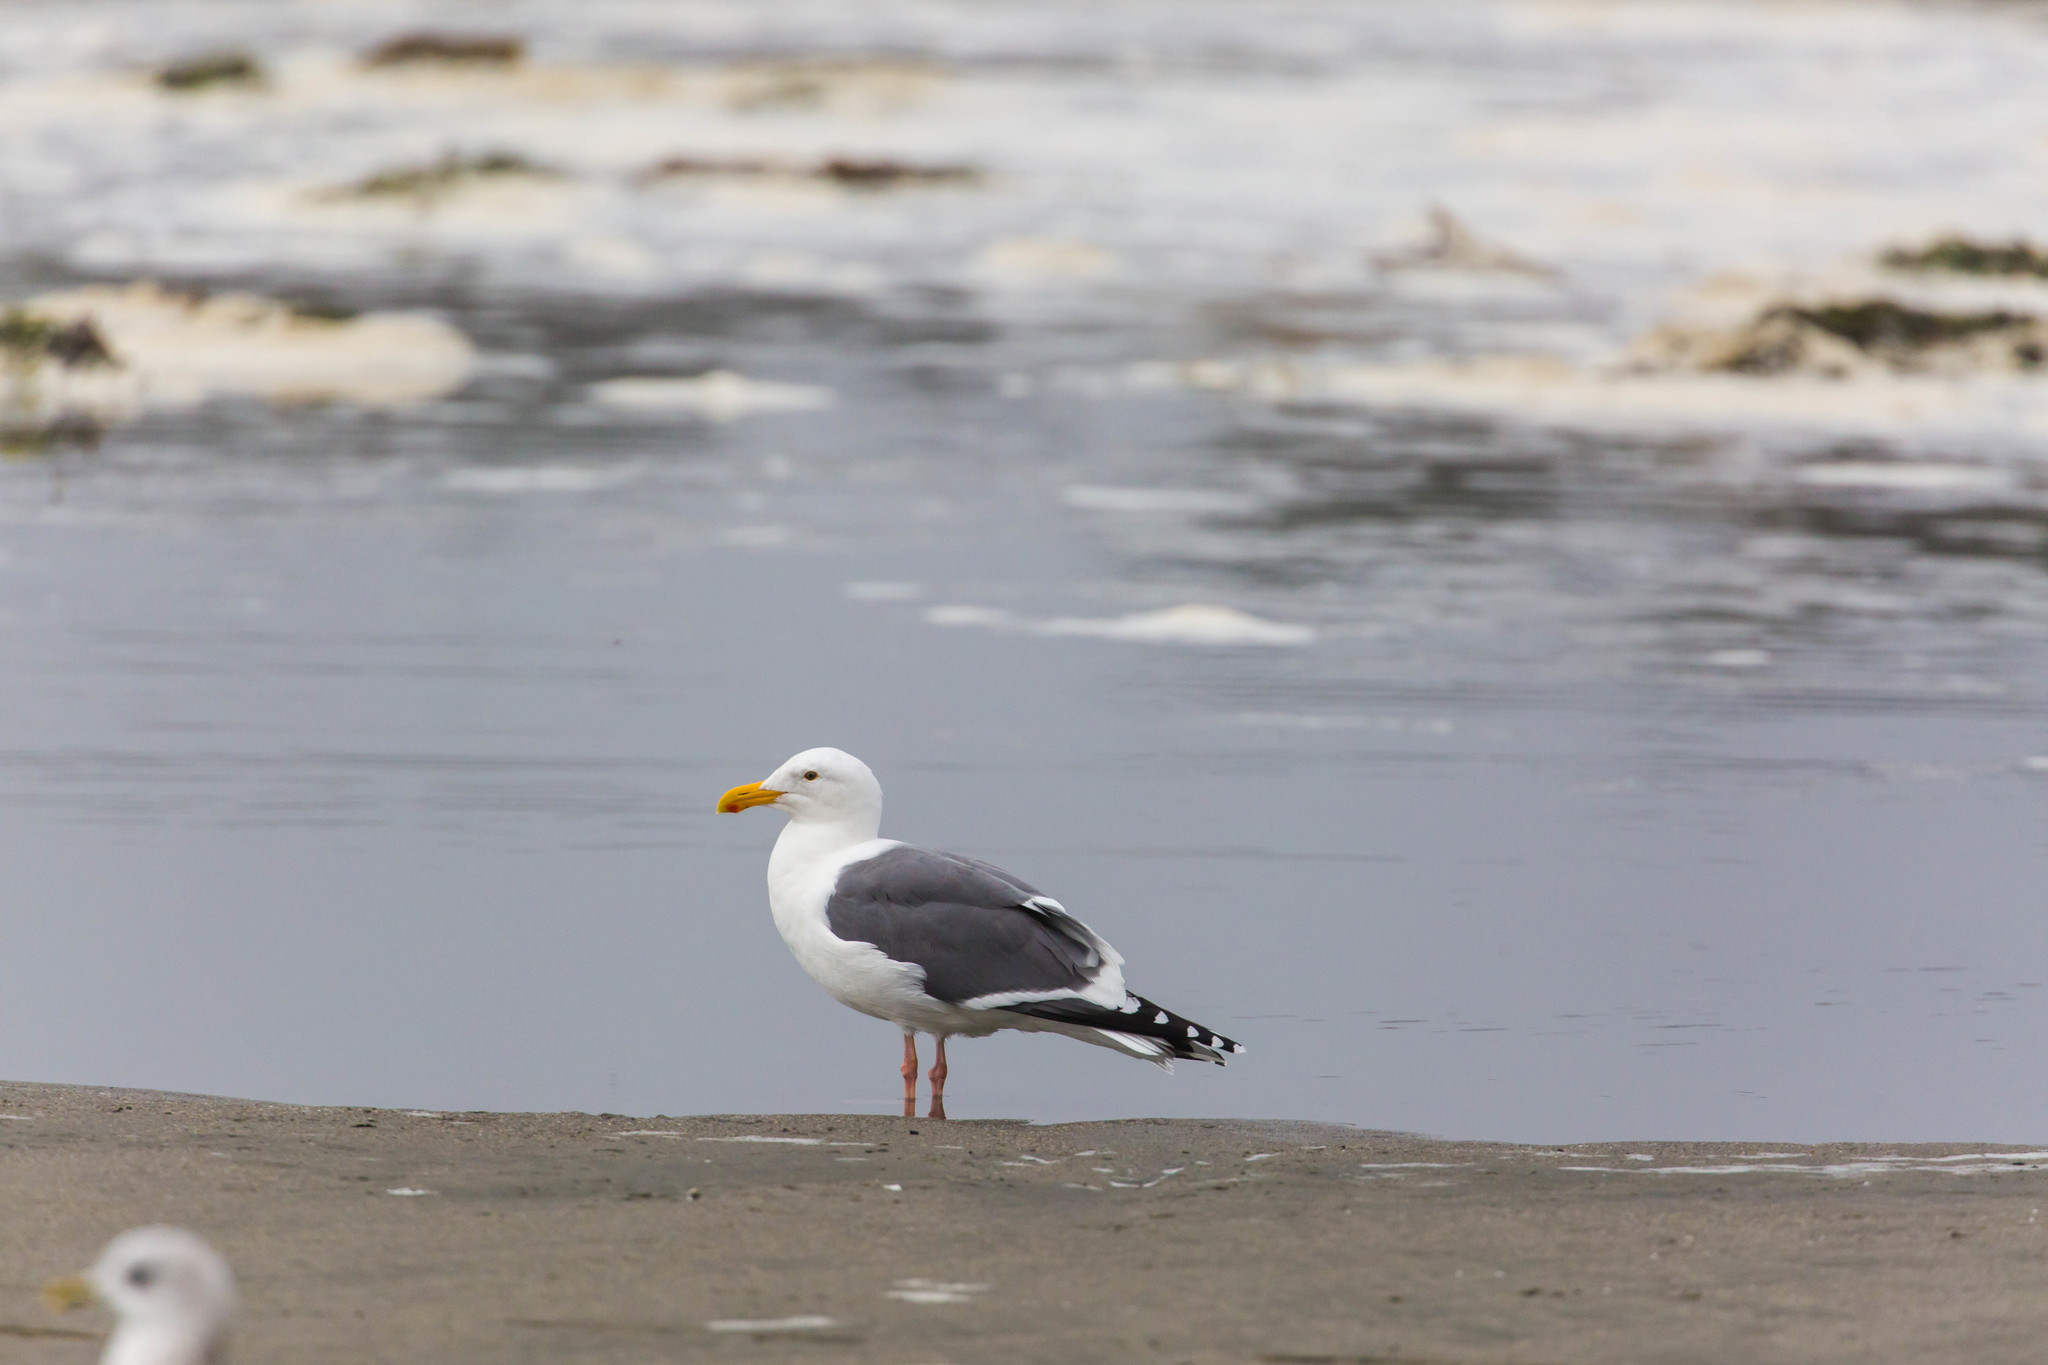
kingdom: Animalia
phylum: Chordata
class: Aves
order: Charadriiformes
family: Laridae
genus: Larus
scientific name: Larus occidentalis
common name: Western gull
